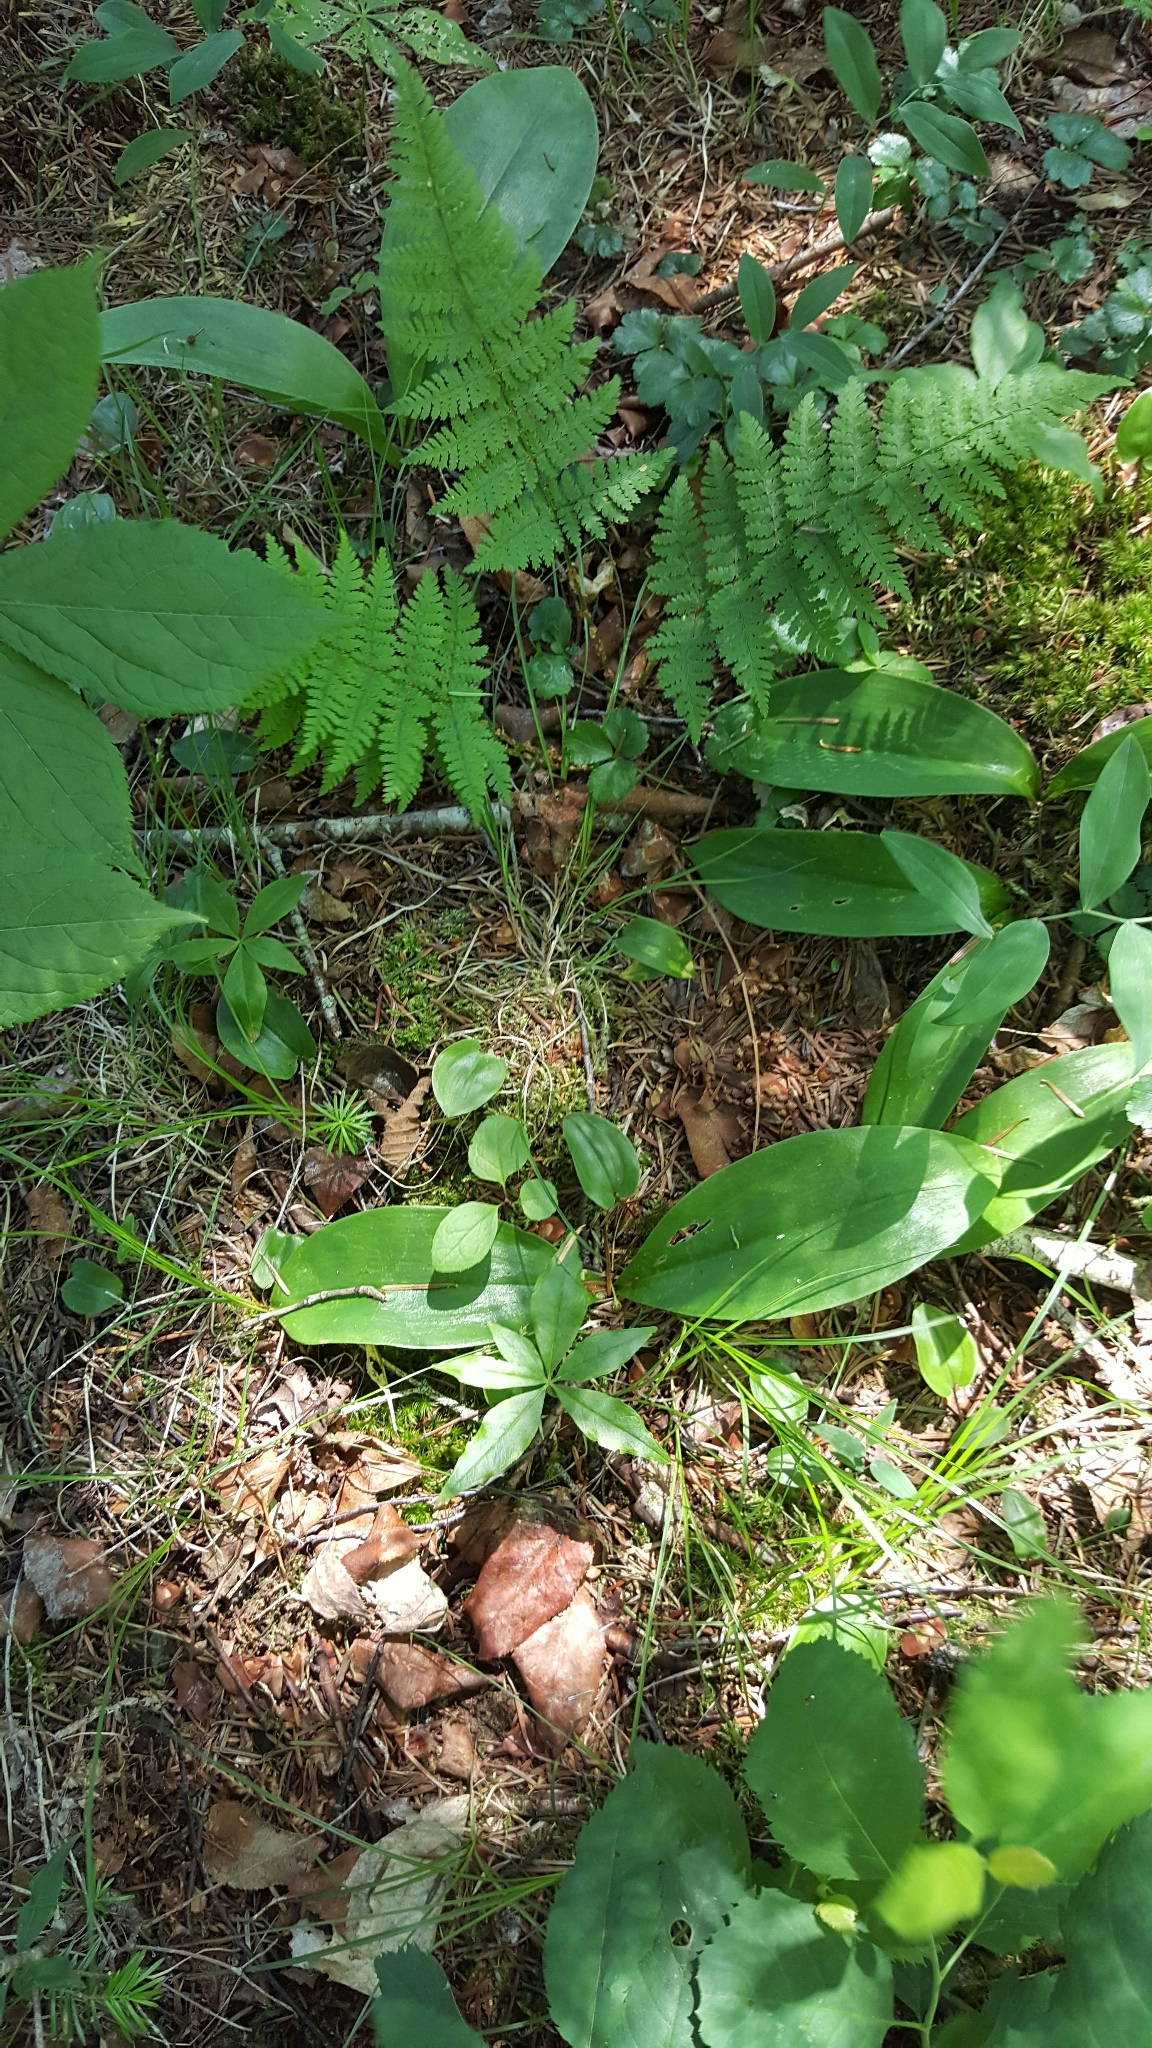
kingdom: Plantae
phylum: Tracheophyta
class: Liliopsida
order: Liliales
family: Liliaceae
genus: Clintonia
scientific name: Clintonia borealis
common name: Yellow clintonia
